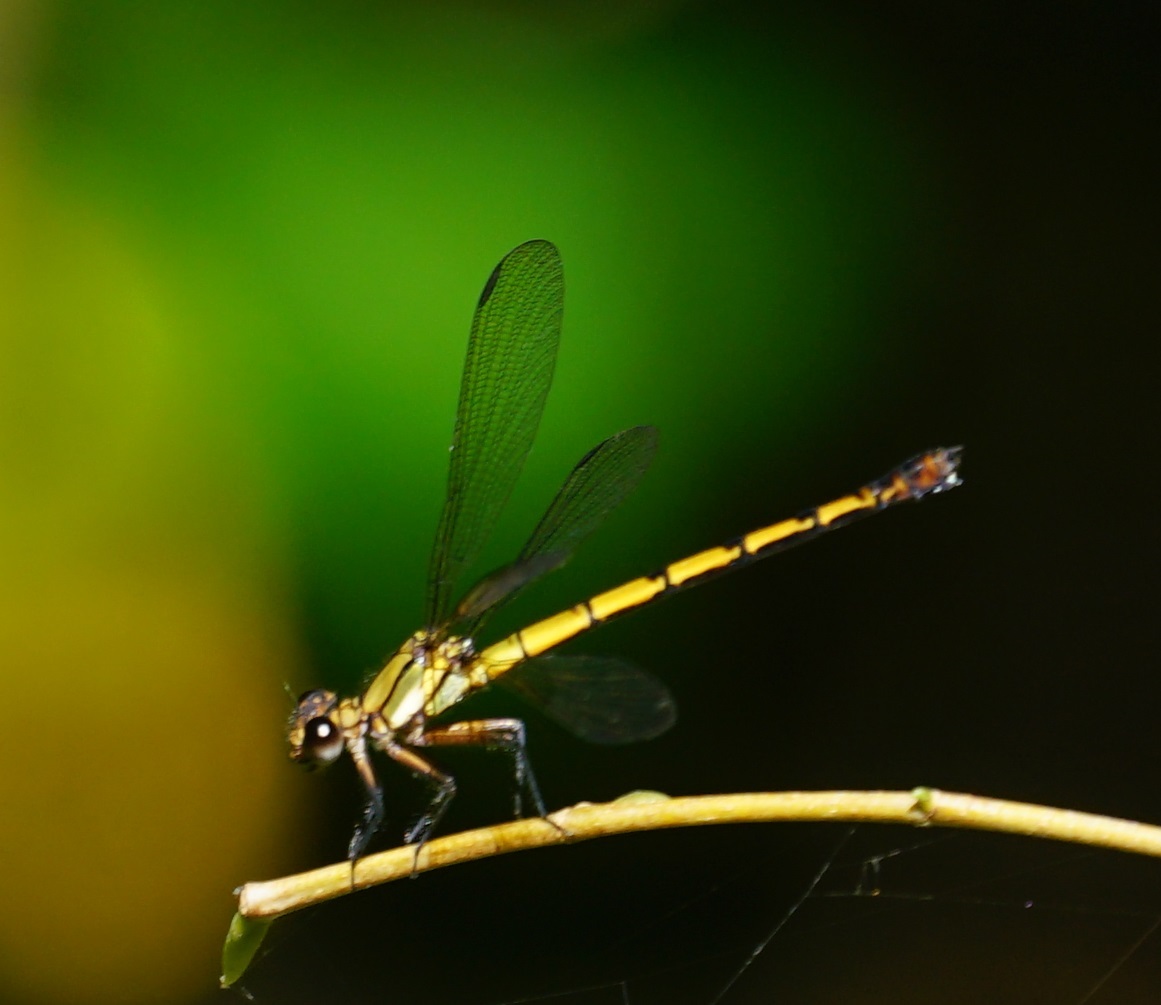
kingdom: Animalia
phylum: Arthropoda
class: Insecta
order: Odonata
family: Lestoideidae
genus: Diphlebia
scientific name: Diphlebia euphoeoides
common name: Tropical rockmaster
